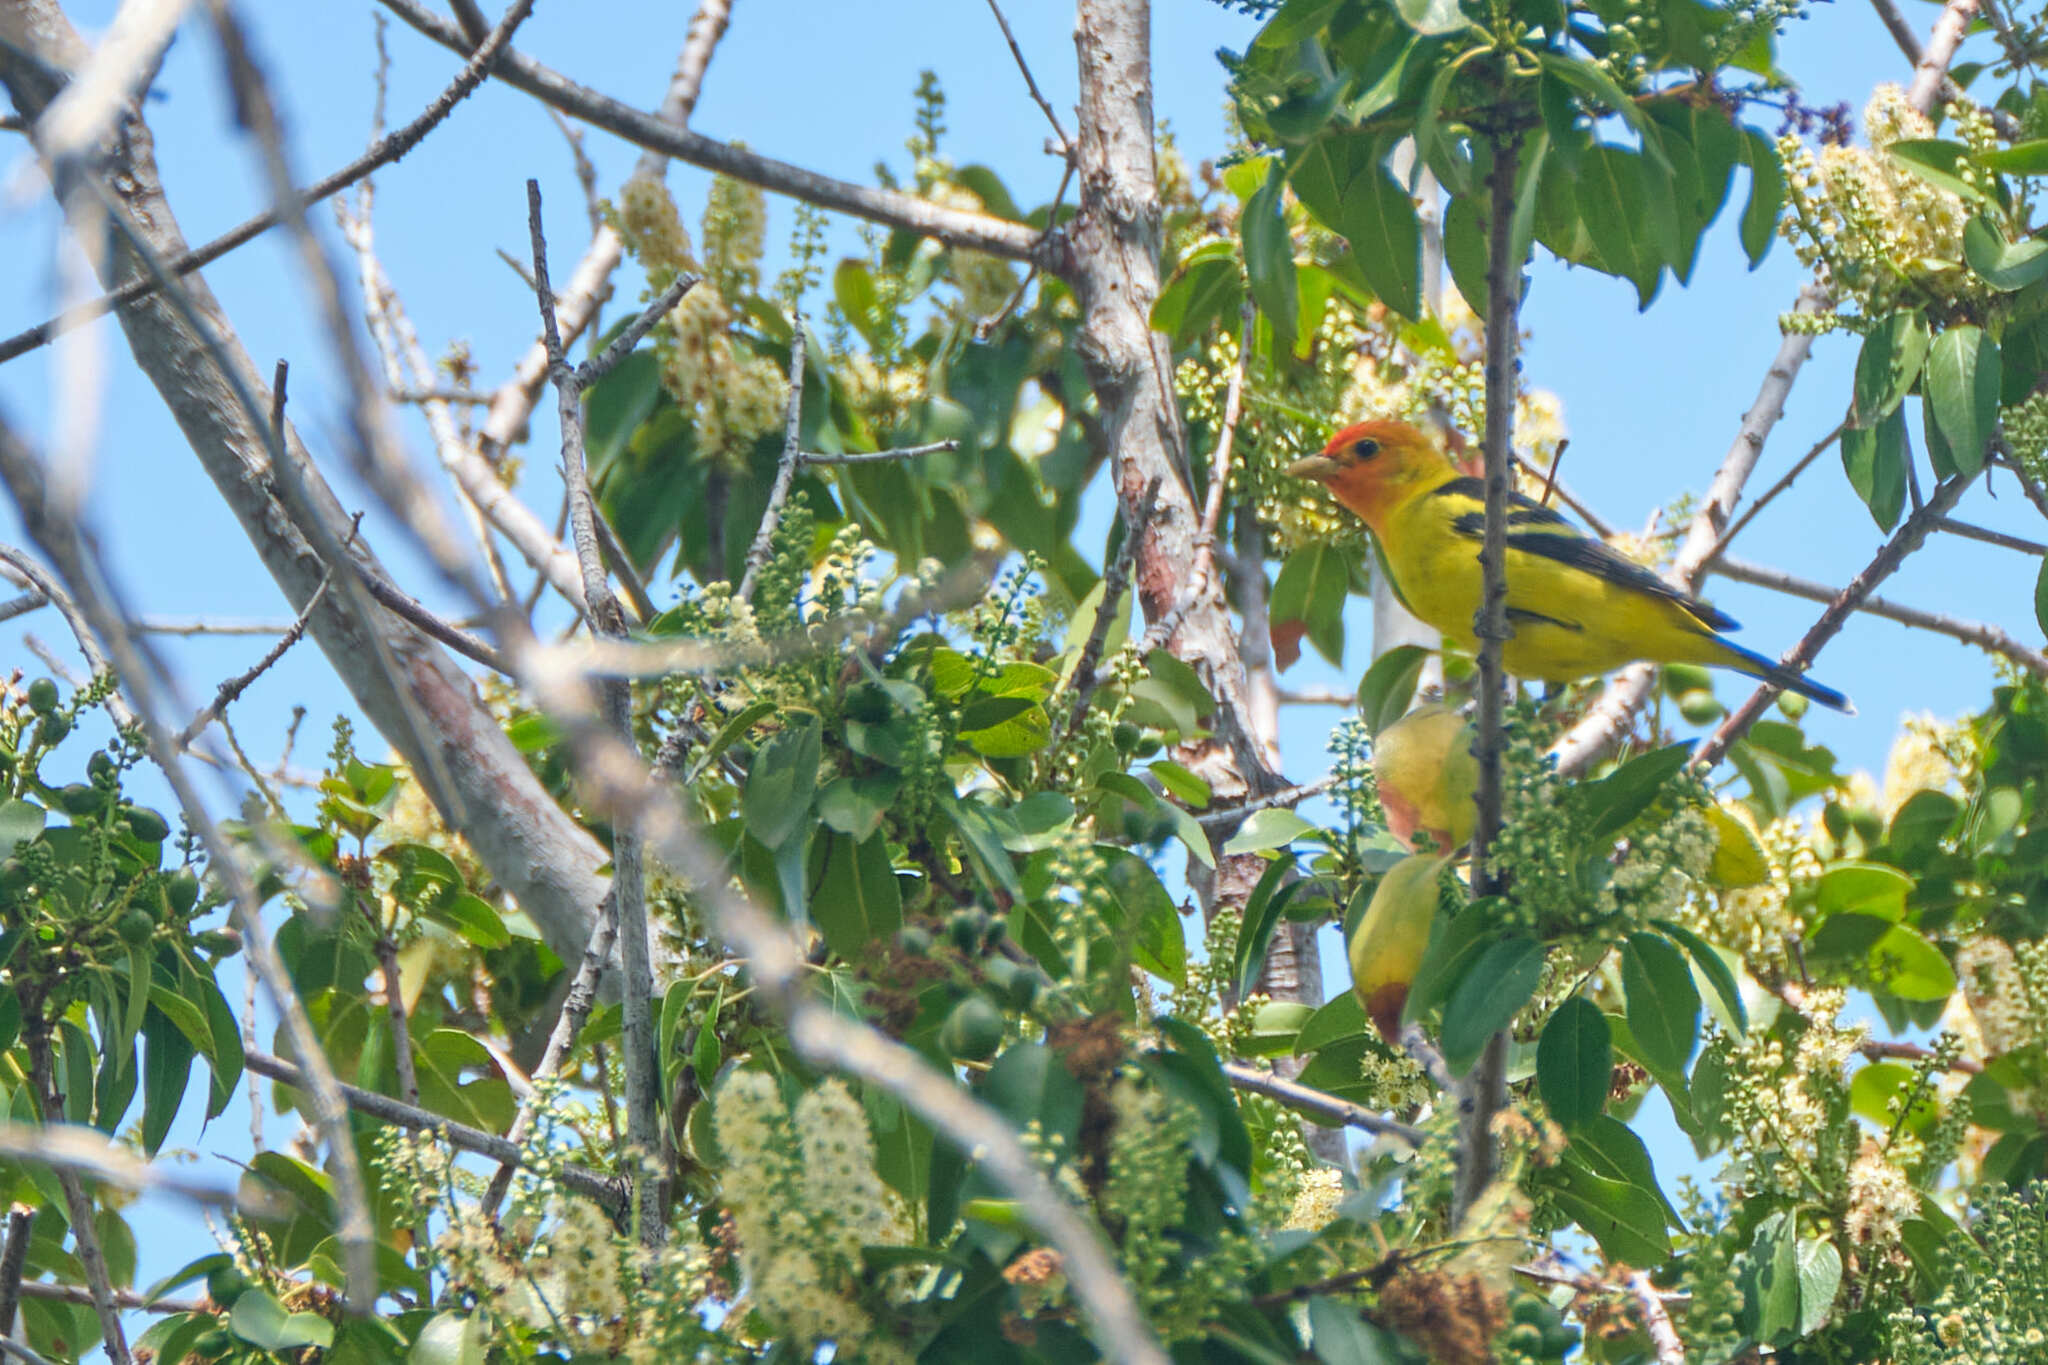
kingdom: Animalia
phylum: Chordata
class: Aves
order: Passeriformes
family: Cardinalidae
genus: Piranga
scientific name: Piranga ludoviciana
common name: Western tanager
